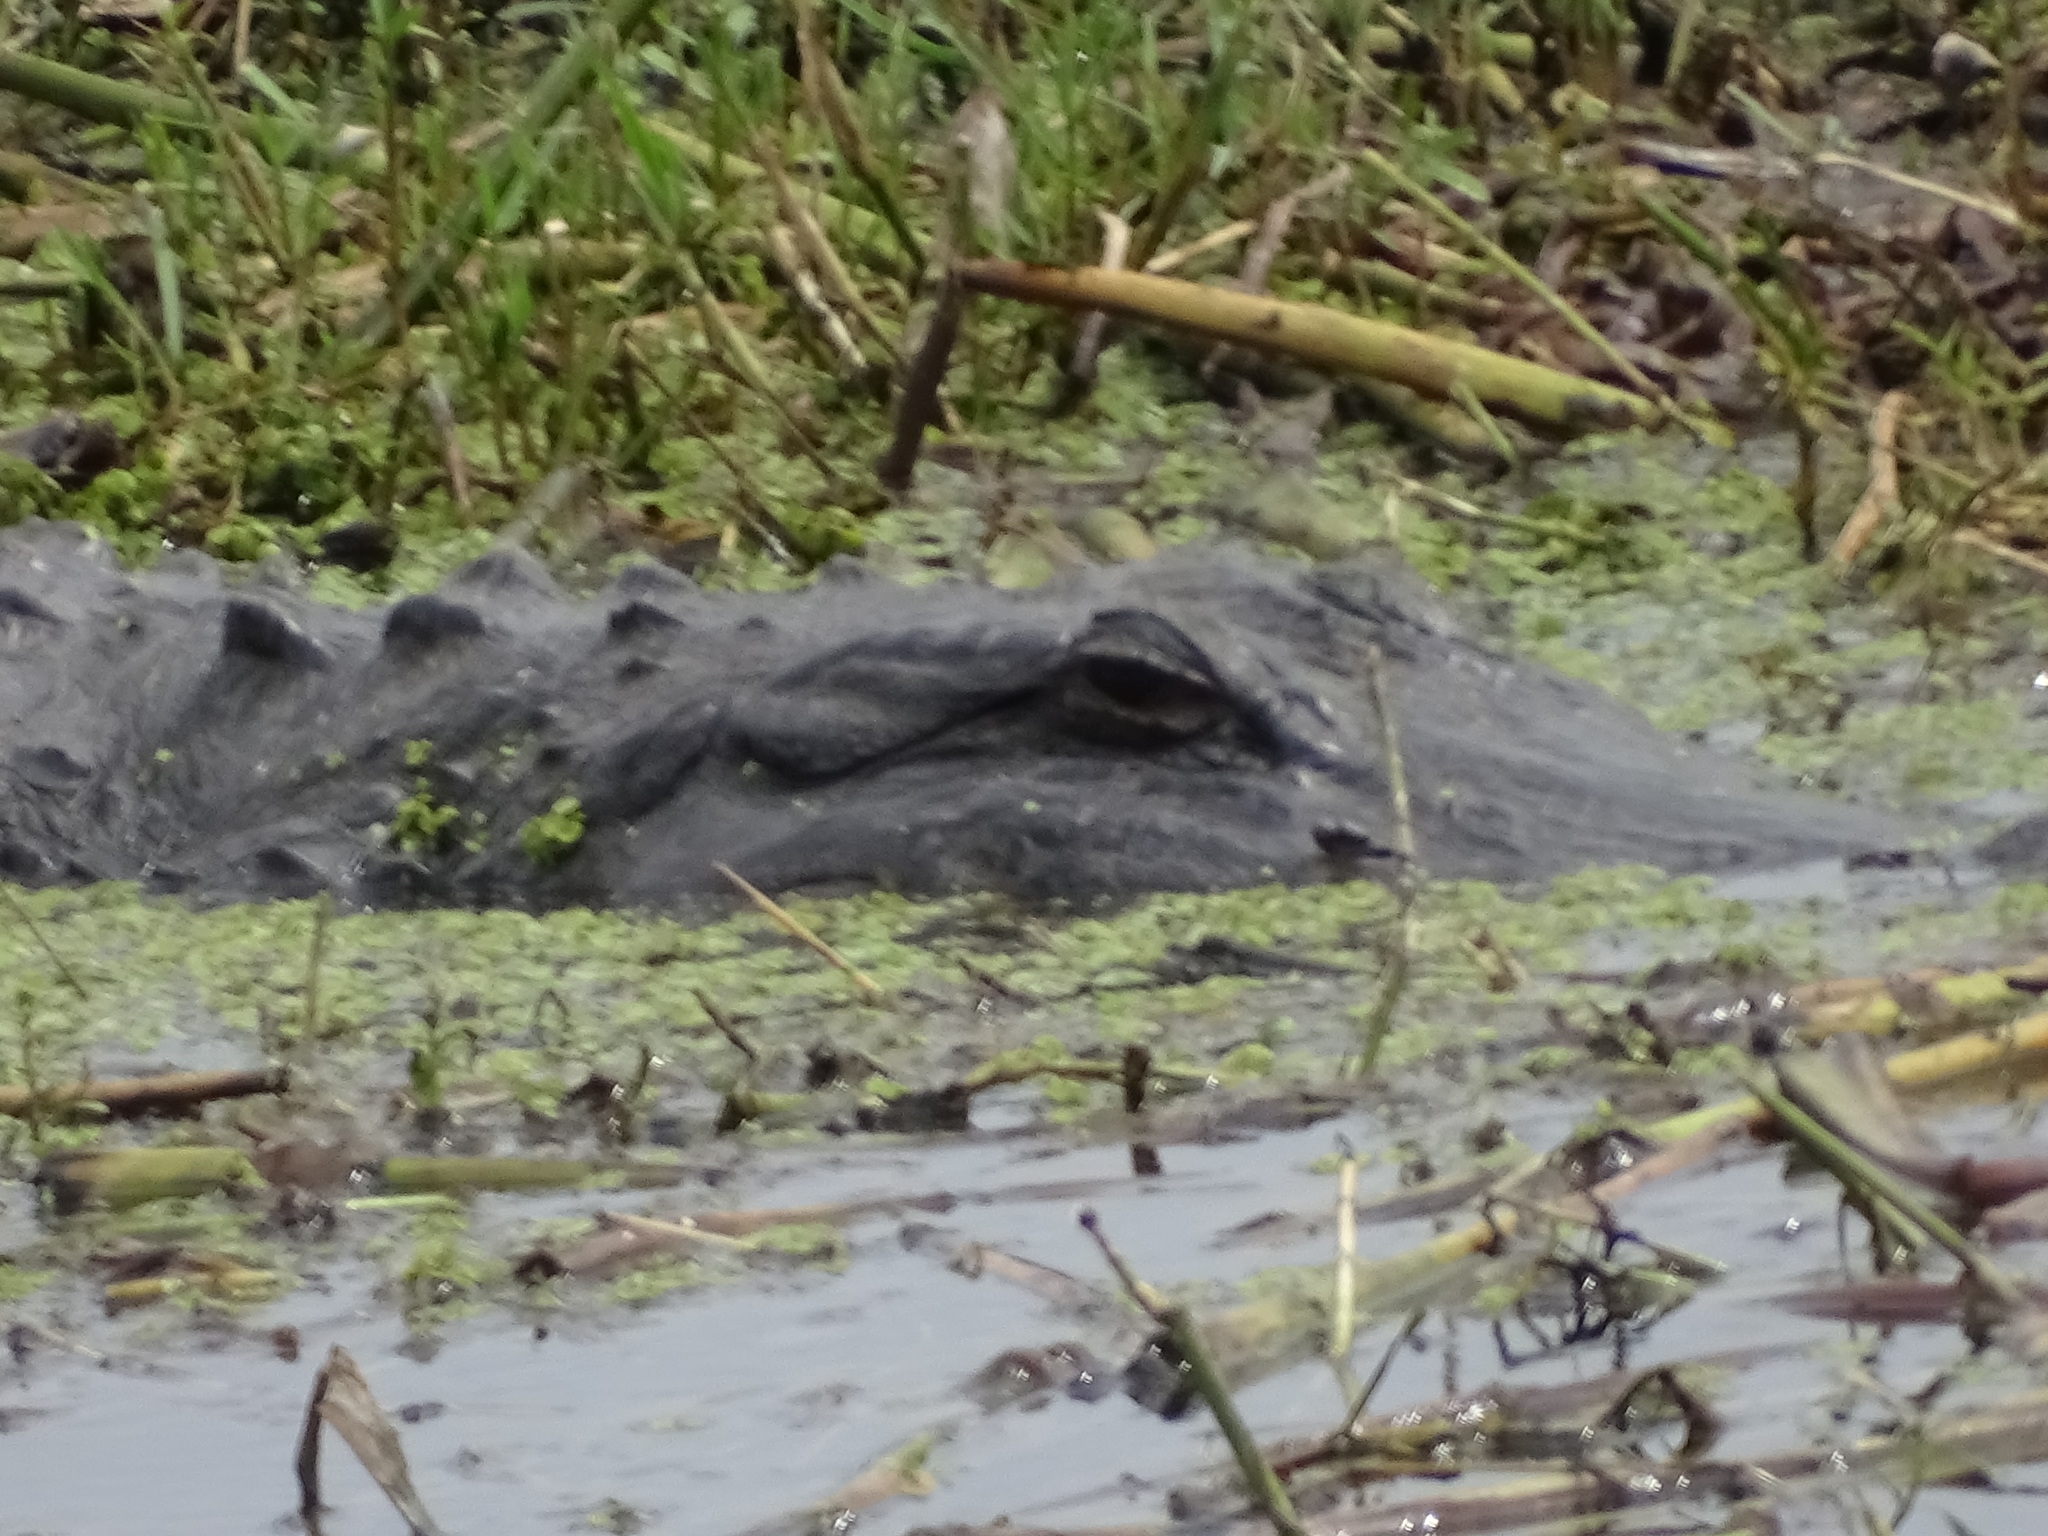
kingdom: Animalia
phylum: Chordata
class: Crocodylia
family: Alligatoridae
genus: Alligator
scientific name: Alligator mississippiensis
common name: American alligator
